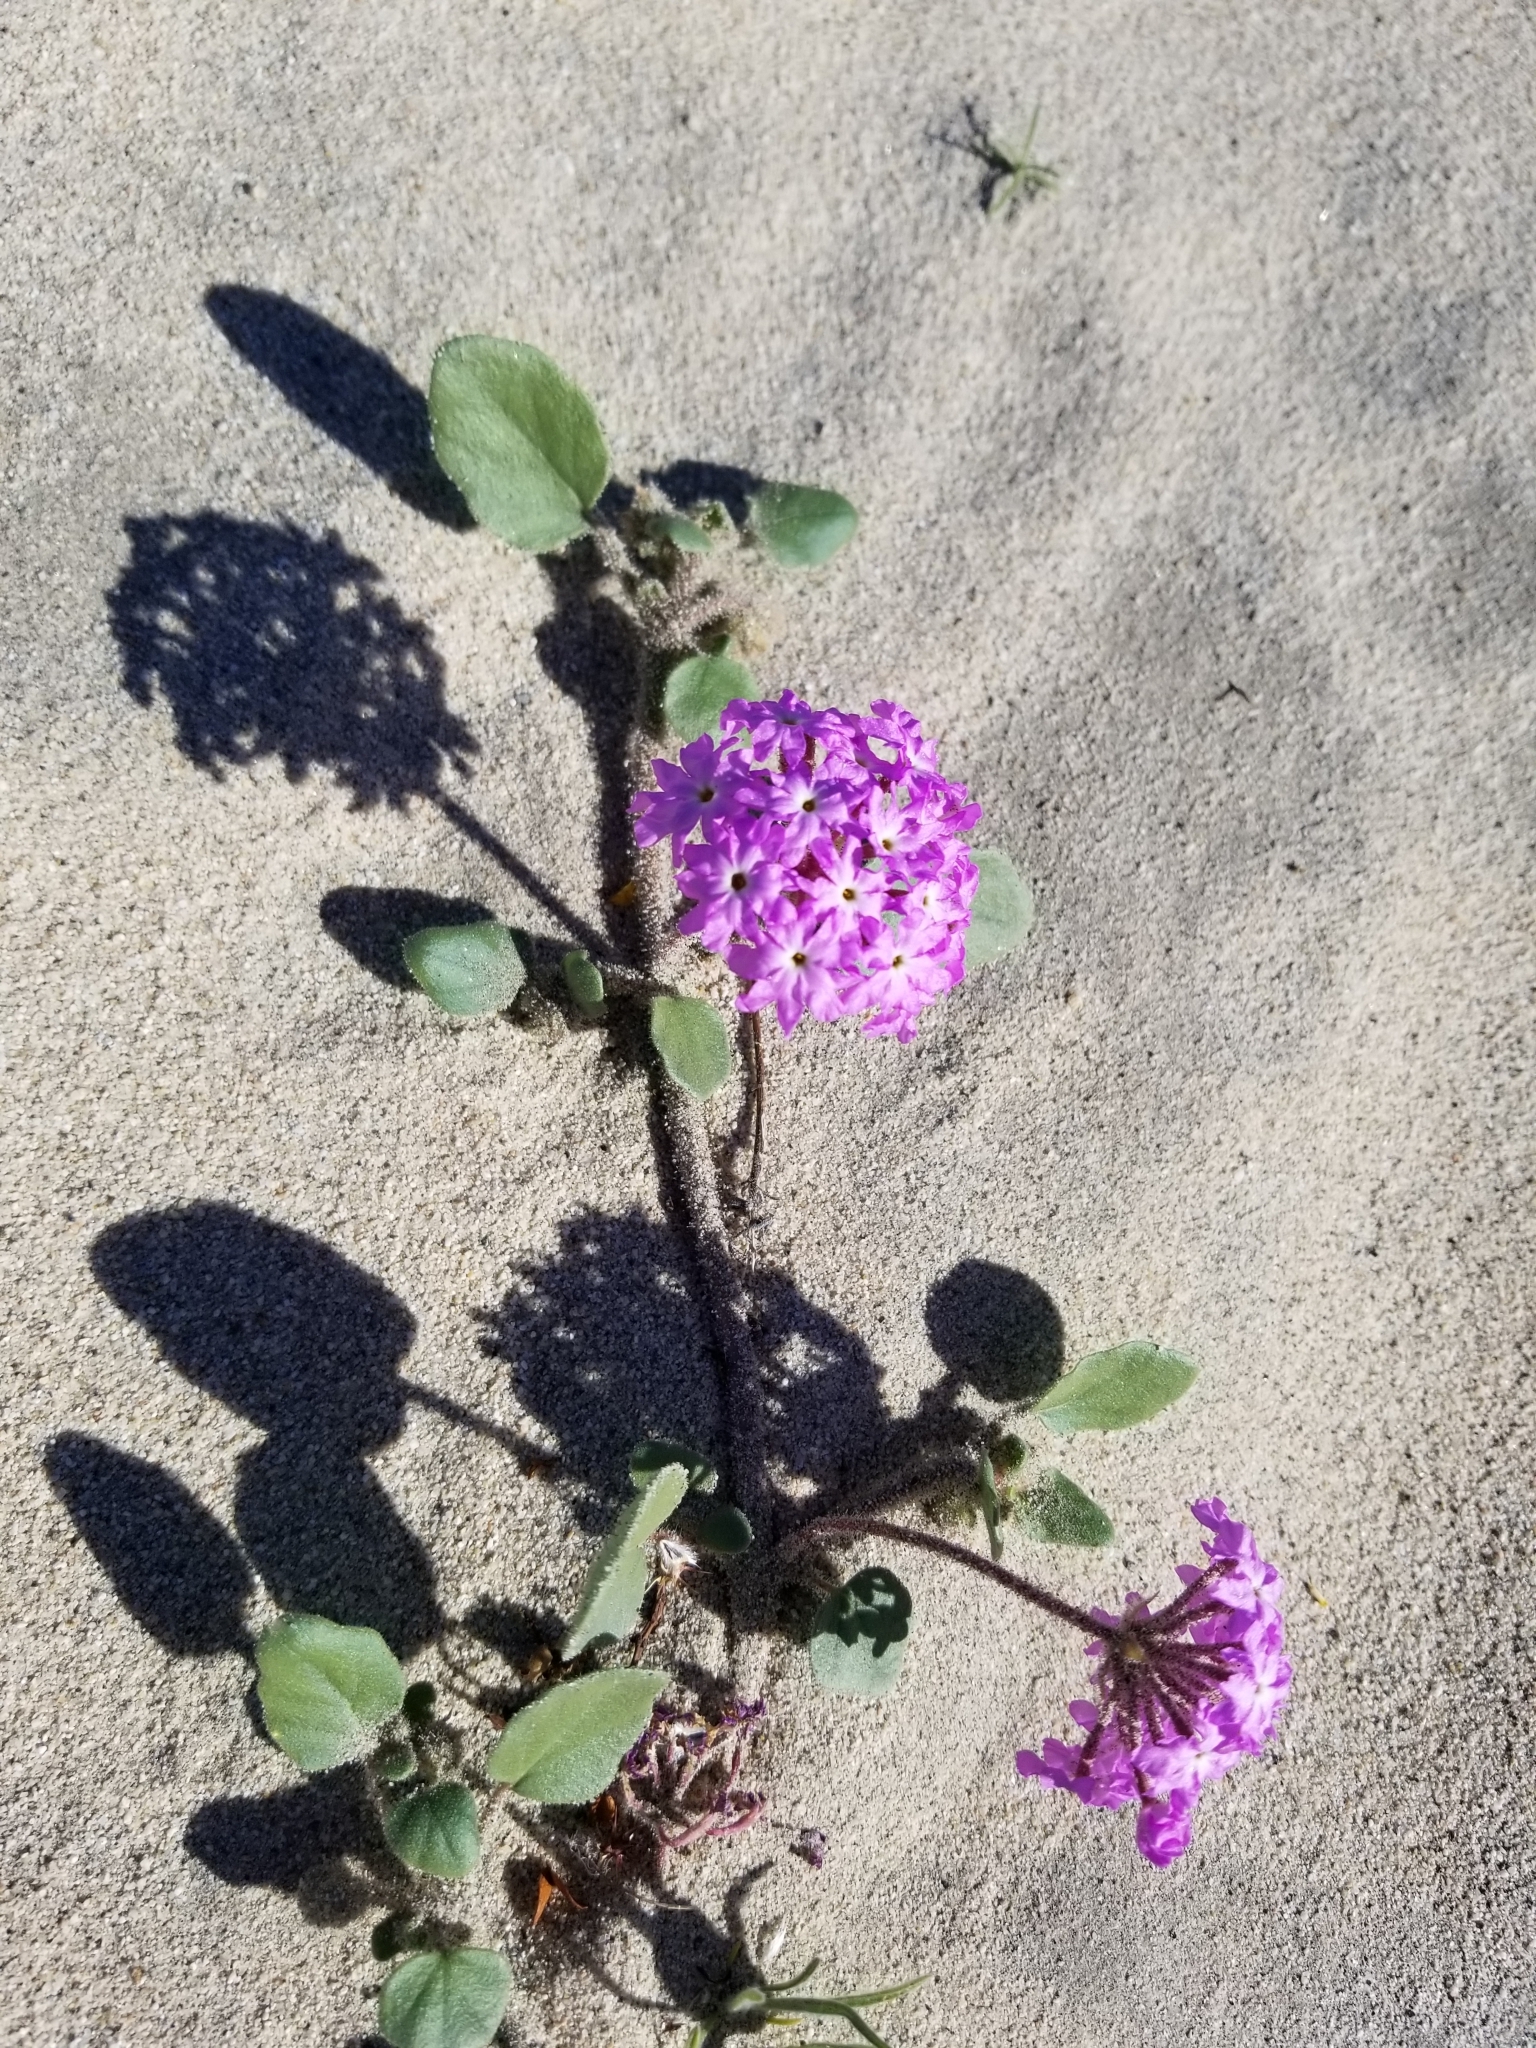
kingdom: Plantae
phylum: Tracheophyta
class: Magnoliopsida
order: Caryophyllales
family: Nyctaginaceae
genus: Abronia
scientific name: Abronia villosa
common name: Desert sand-verbena
